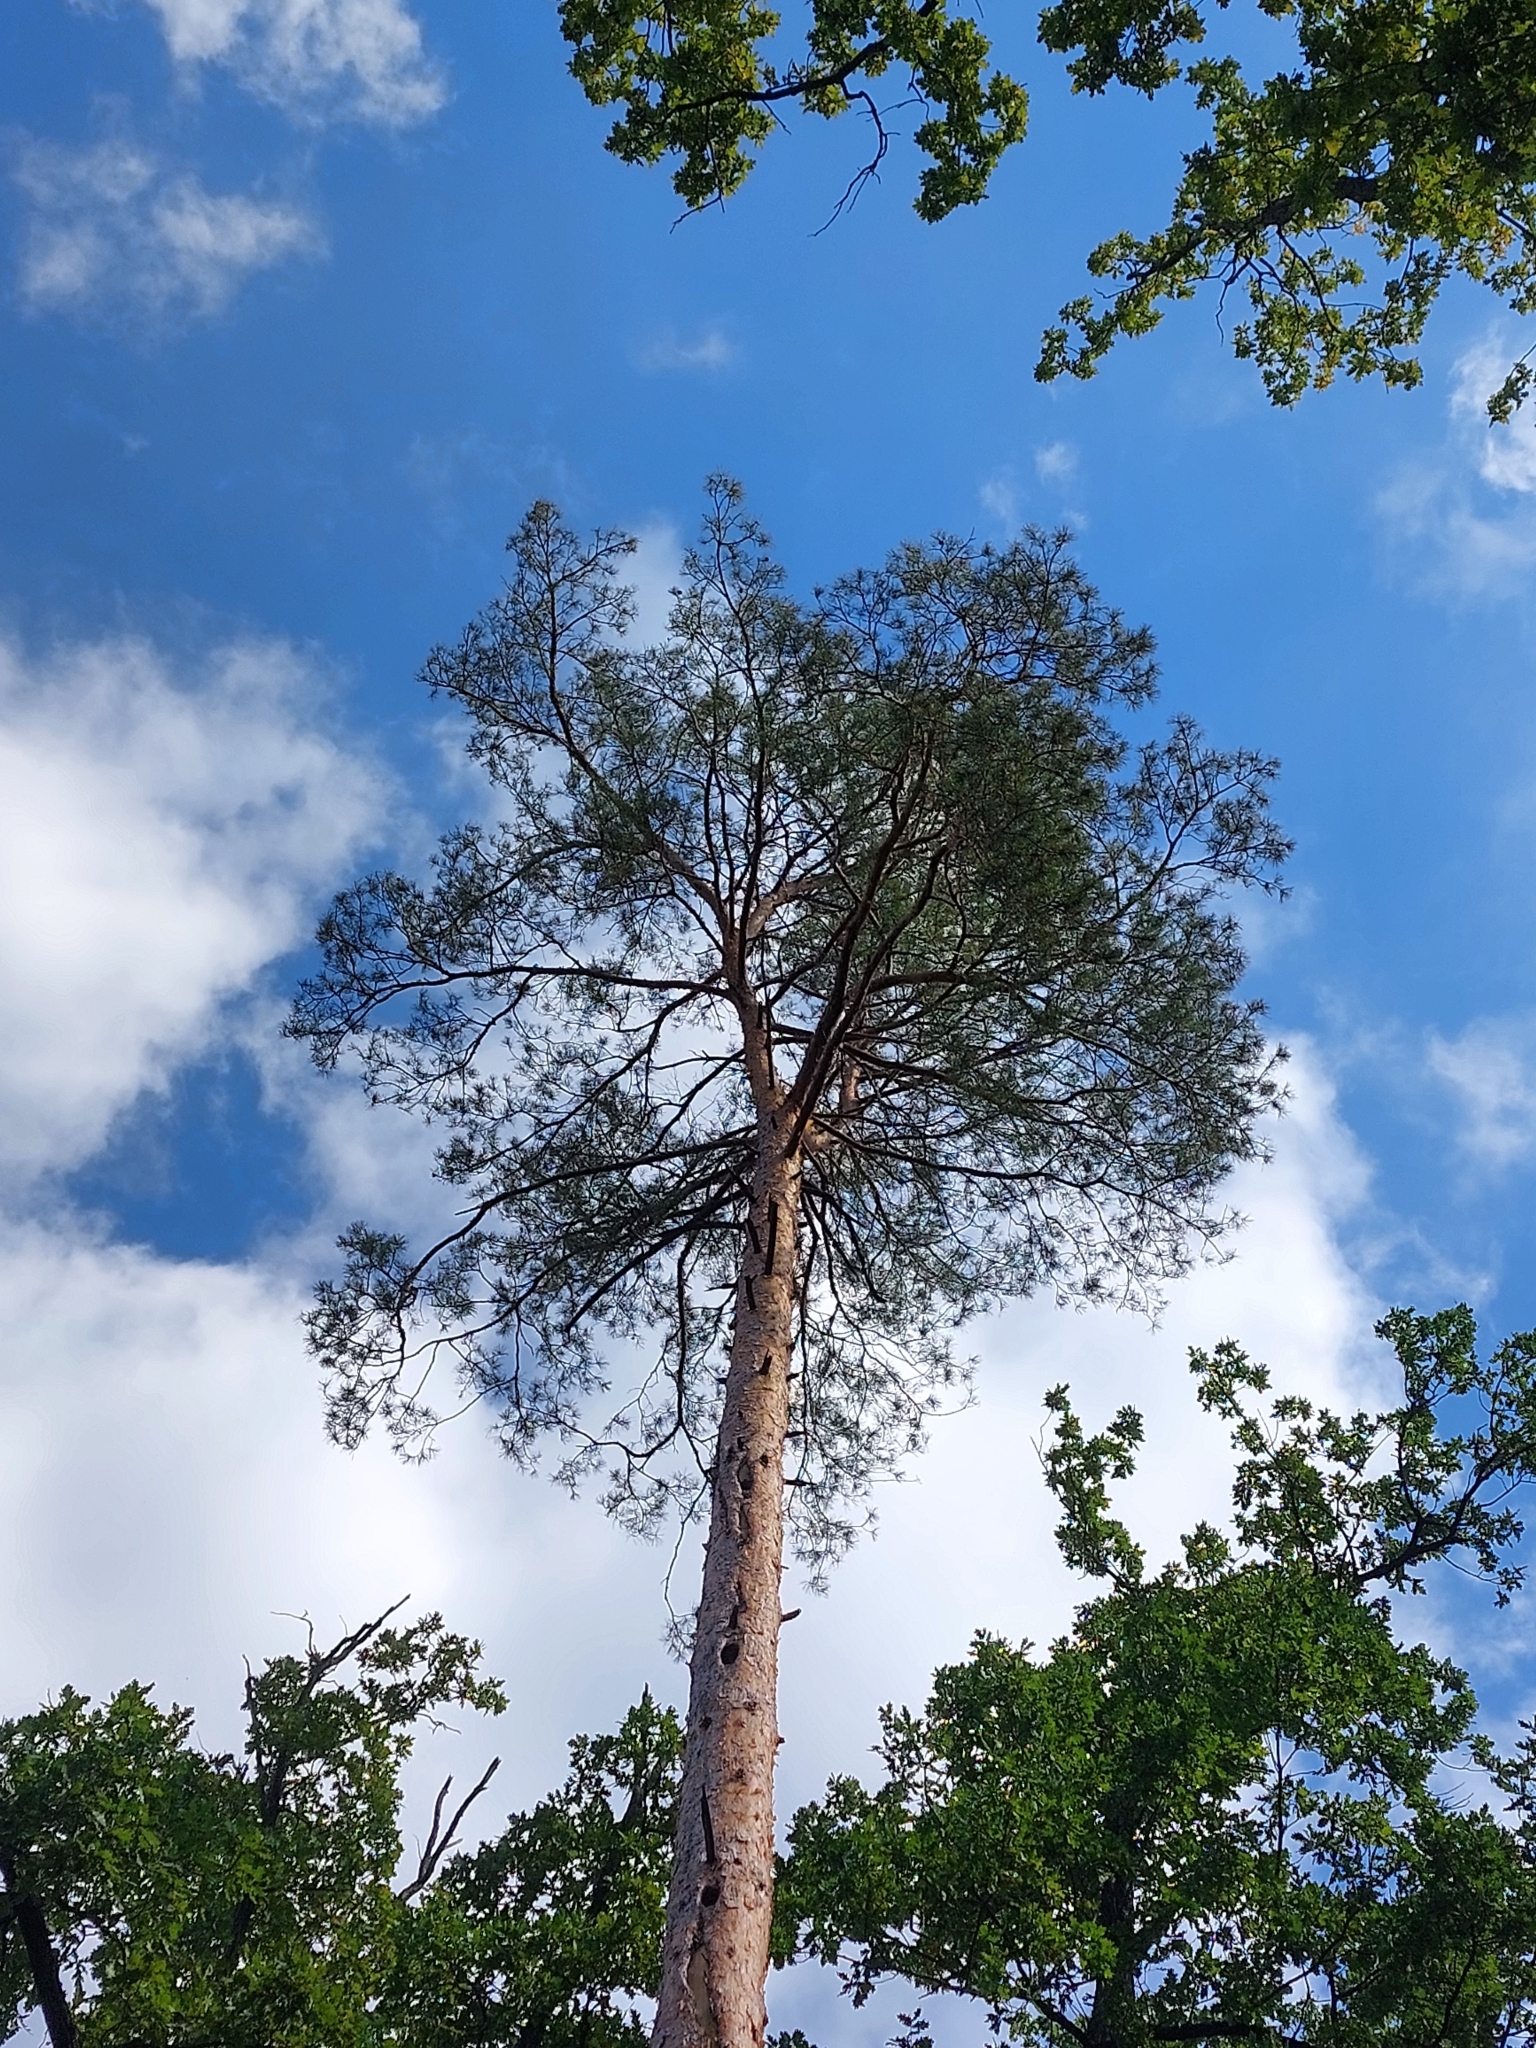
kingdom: Plantae
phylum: Tracheophyta
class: Pinopsida
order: Pinales
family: Pinaceae
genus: Pinus
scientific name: Pinus sylvestris
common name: Scots pine
